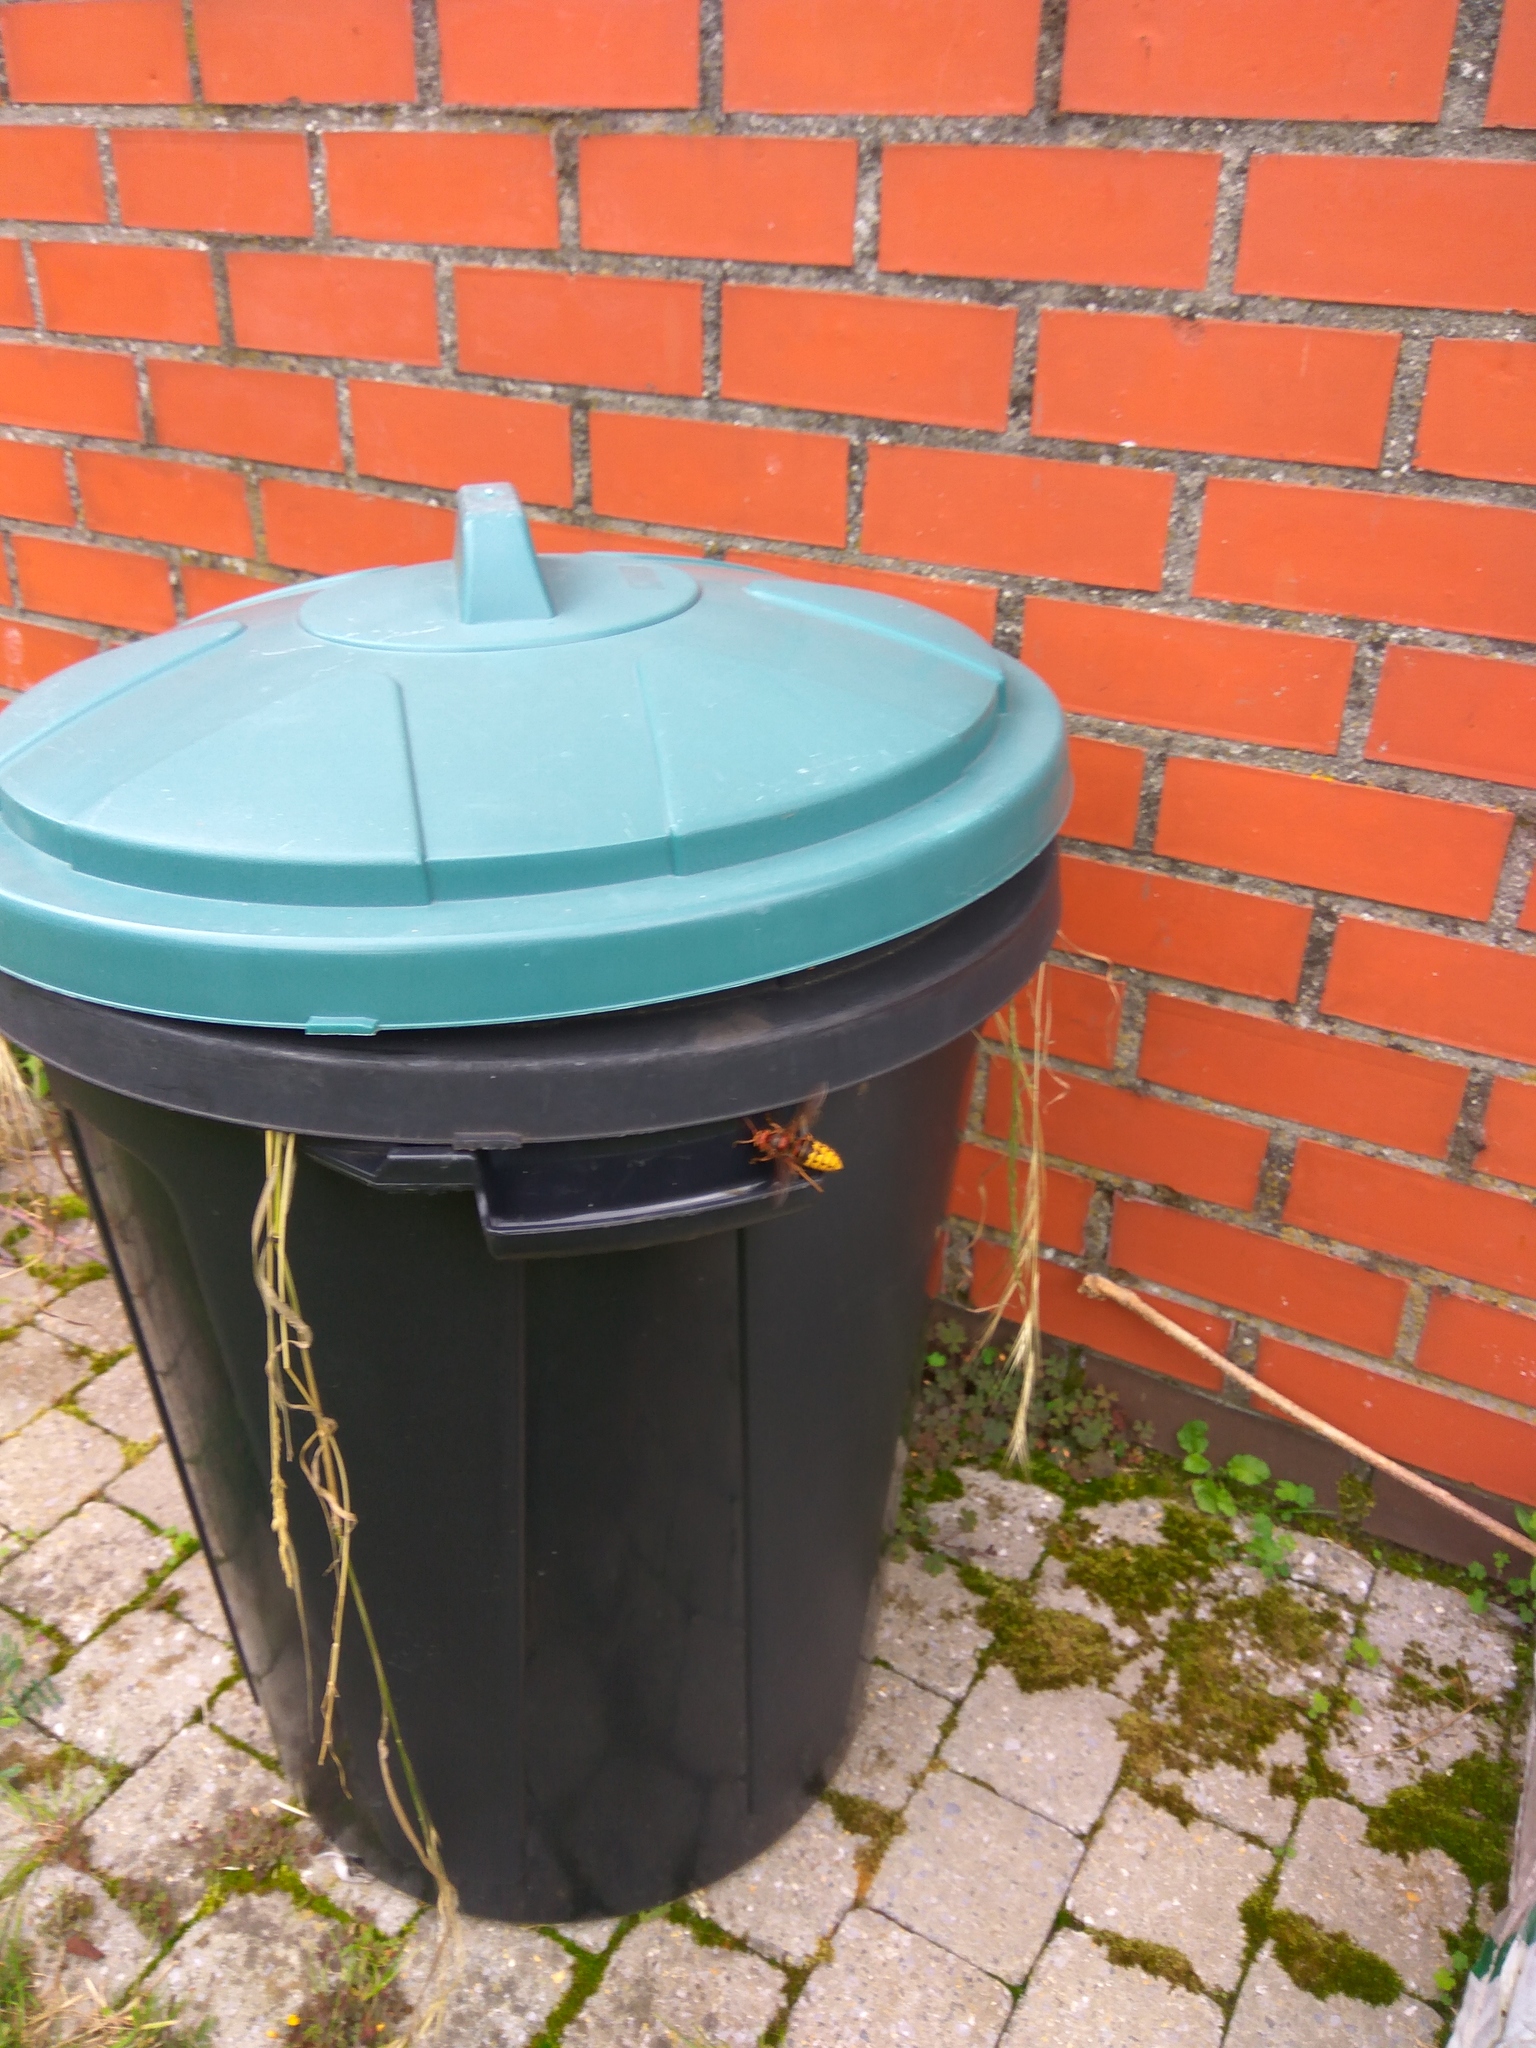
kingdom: Animalia
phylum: Arthropoda
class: Insecta
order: Hymenoptera
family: Vespidae
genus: Vespa
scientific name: Vespa crabro
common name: Hornet
